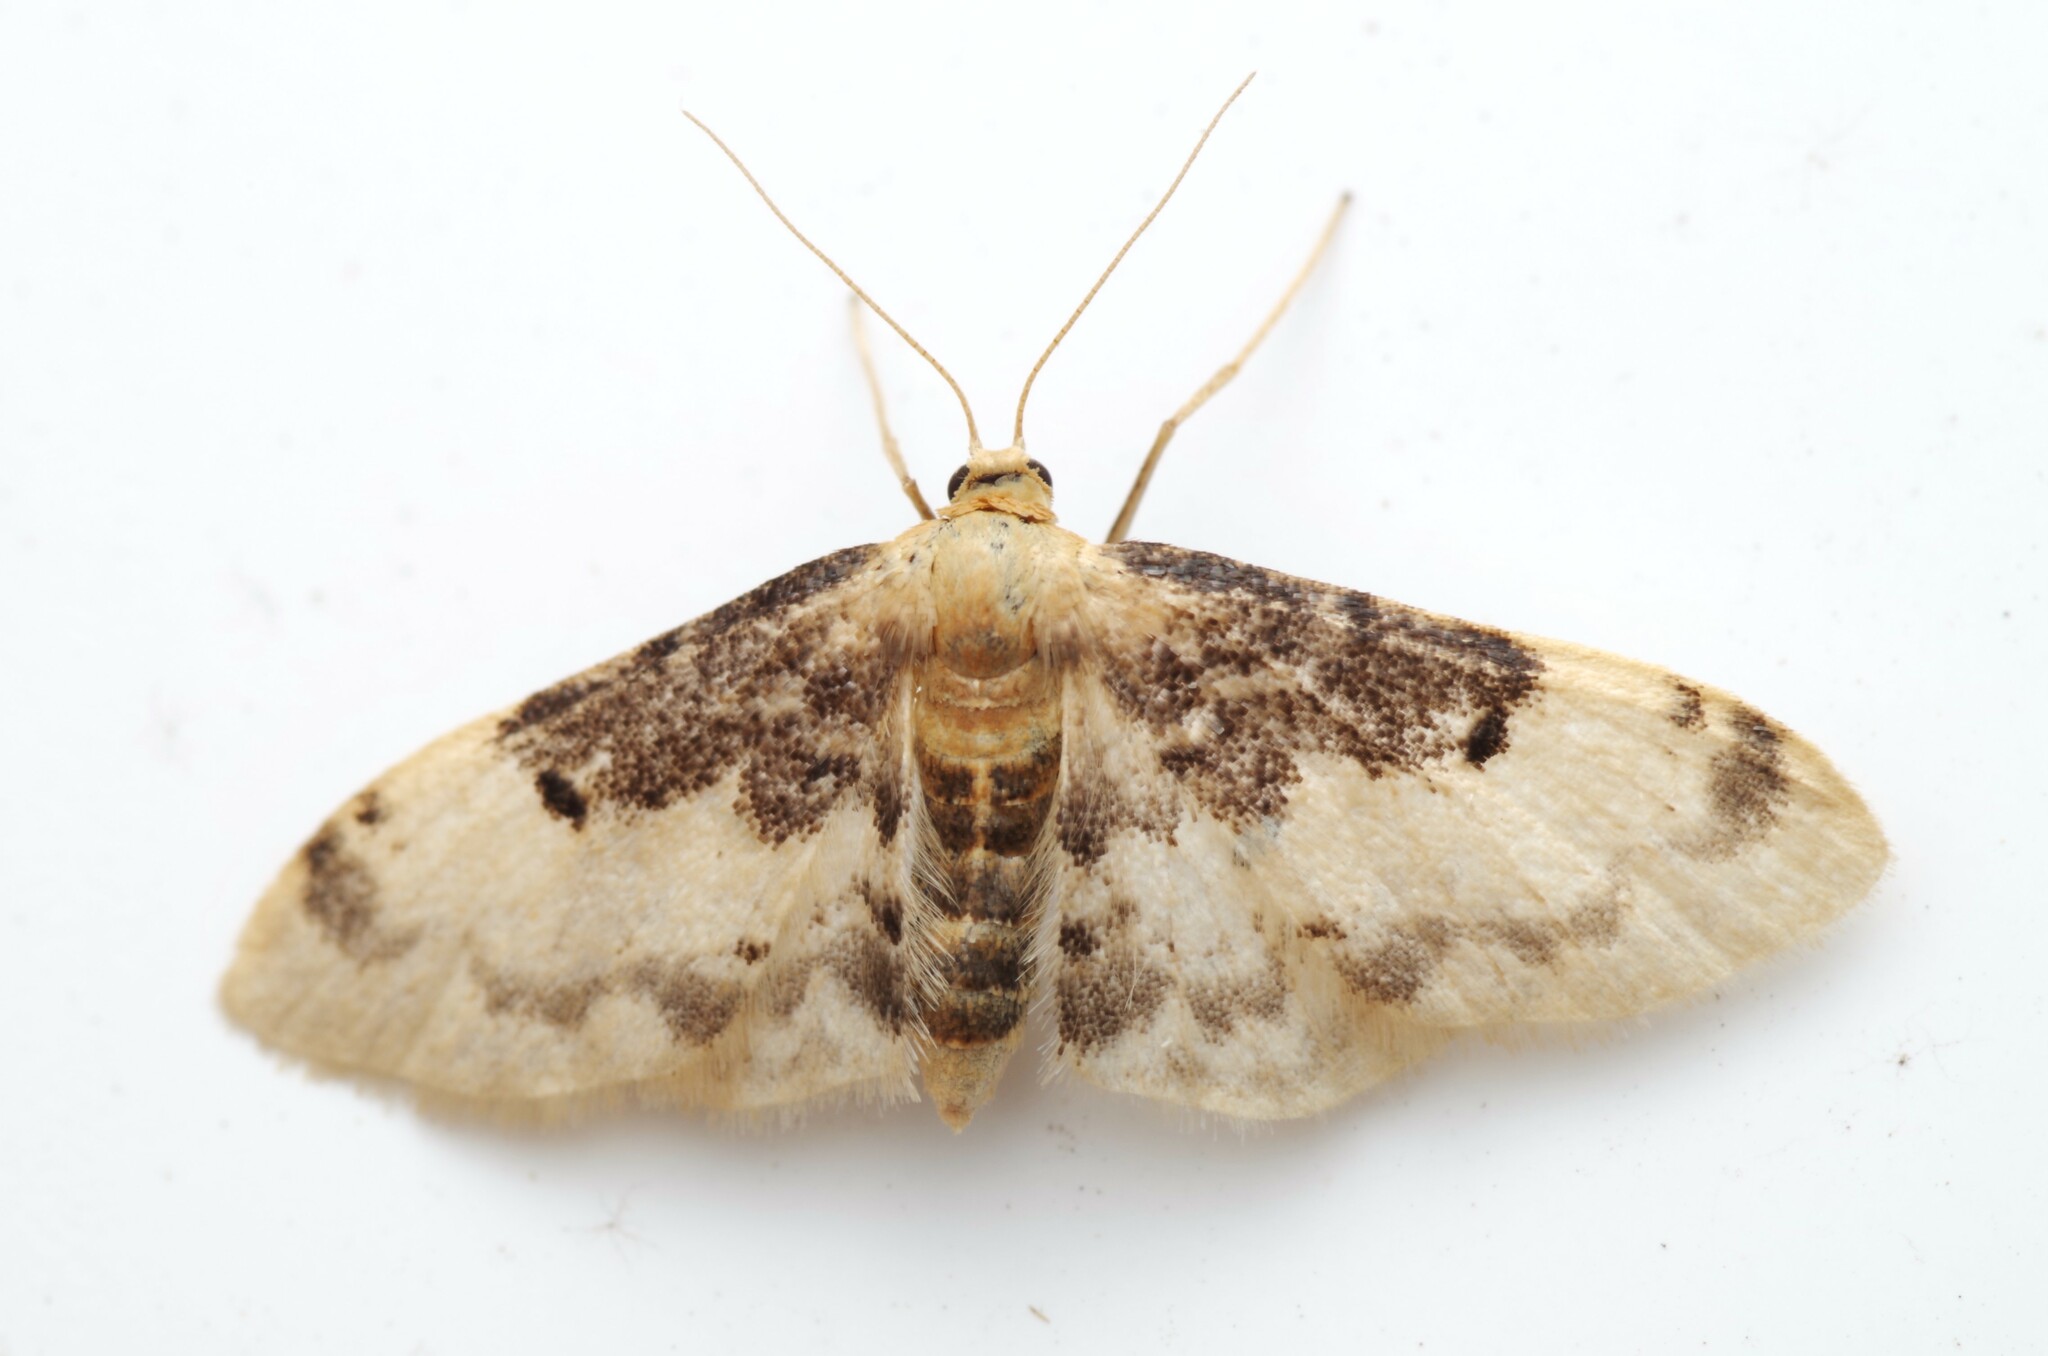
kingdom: Animalia
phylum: Arthropoda
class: Insecta
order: Lepidoptera
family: Geometridae
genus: Idaea
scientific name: Idaea filicata
